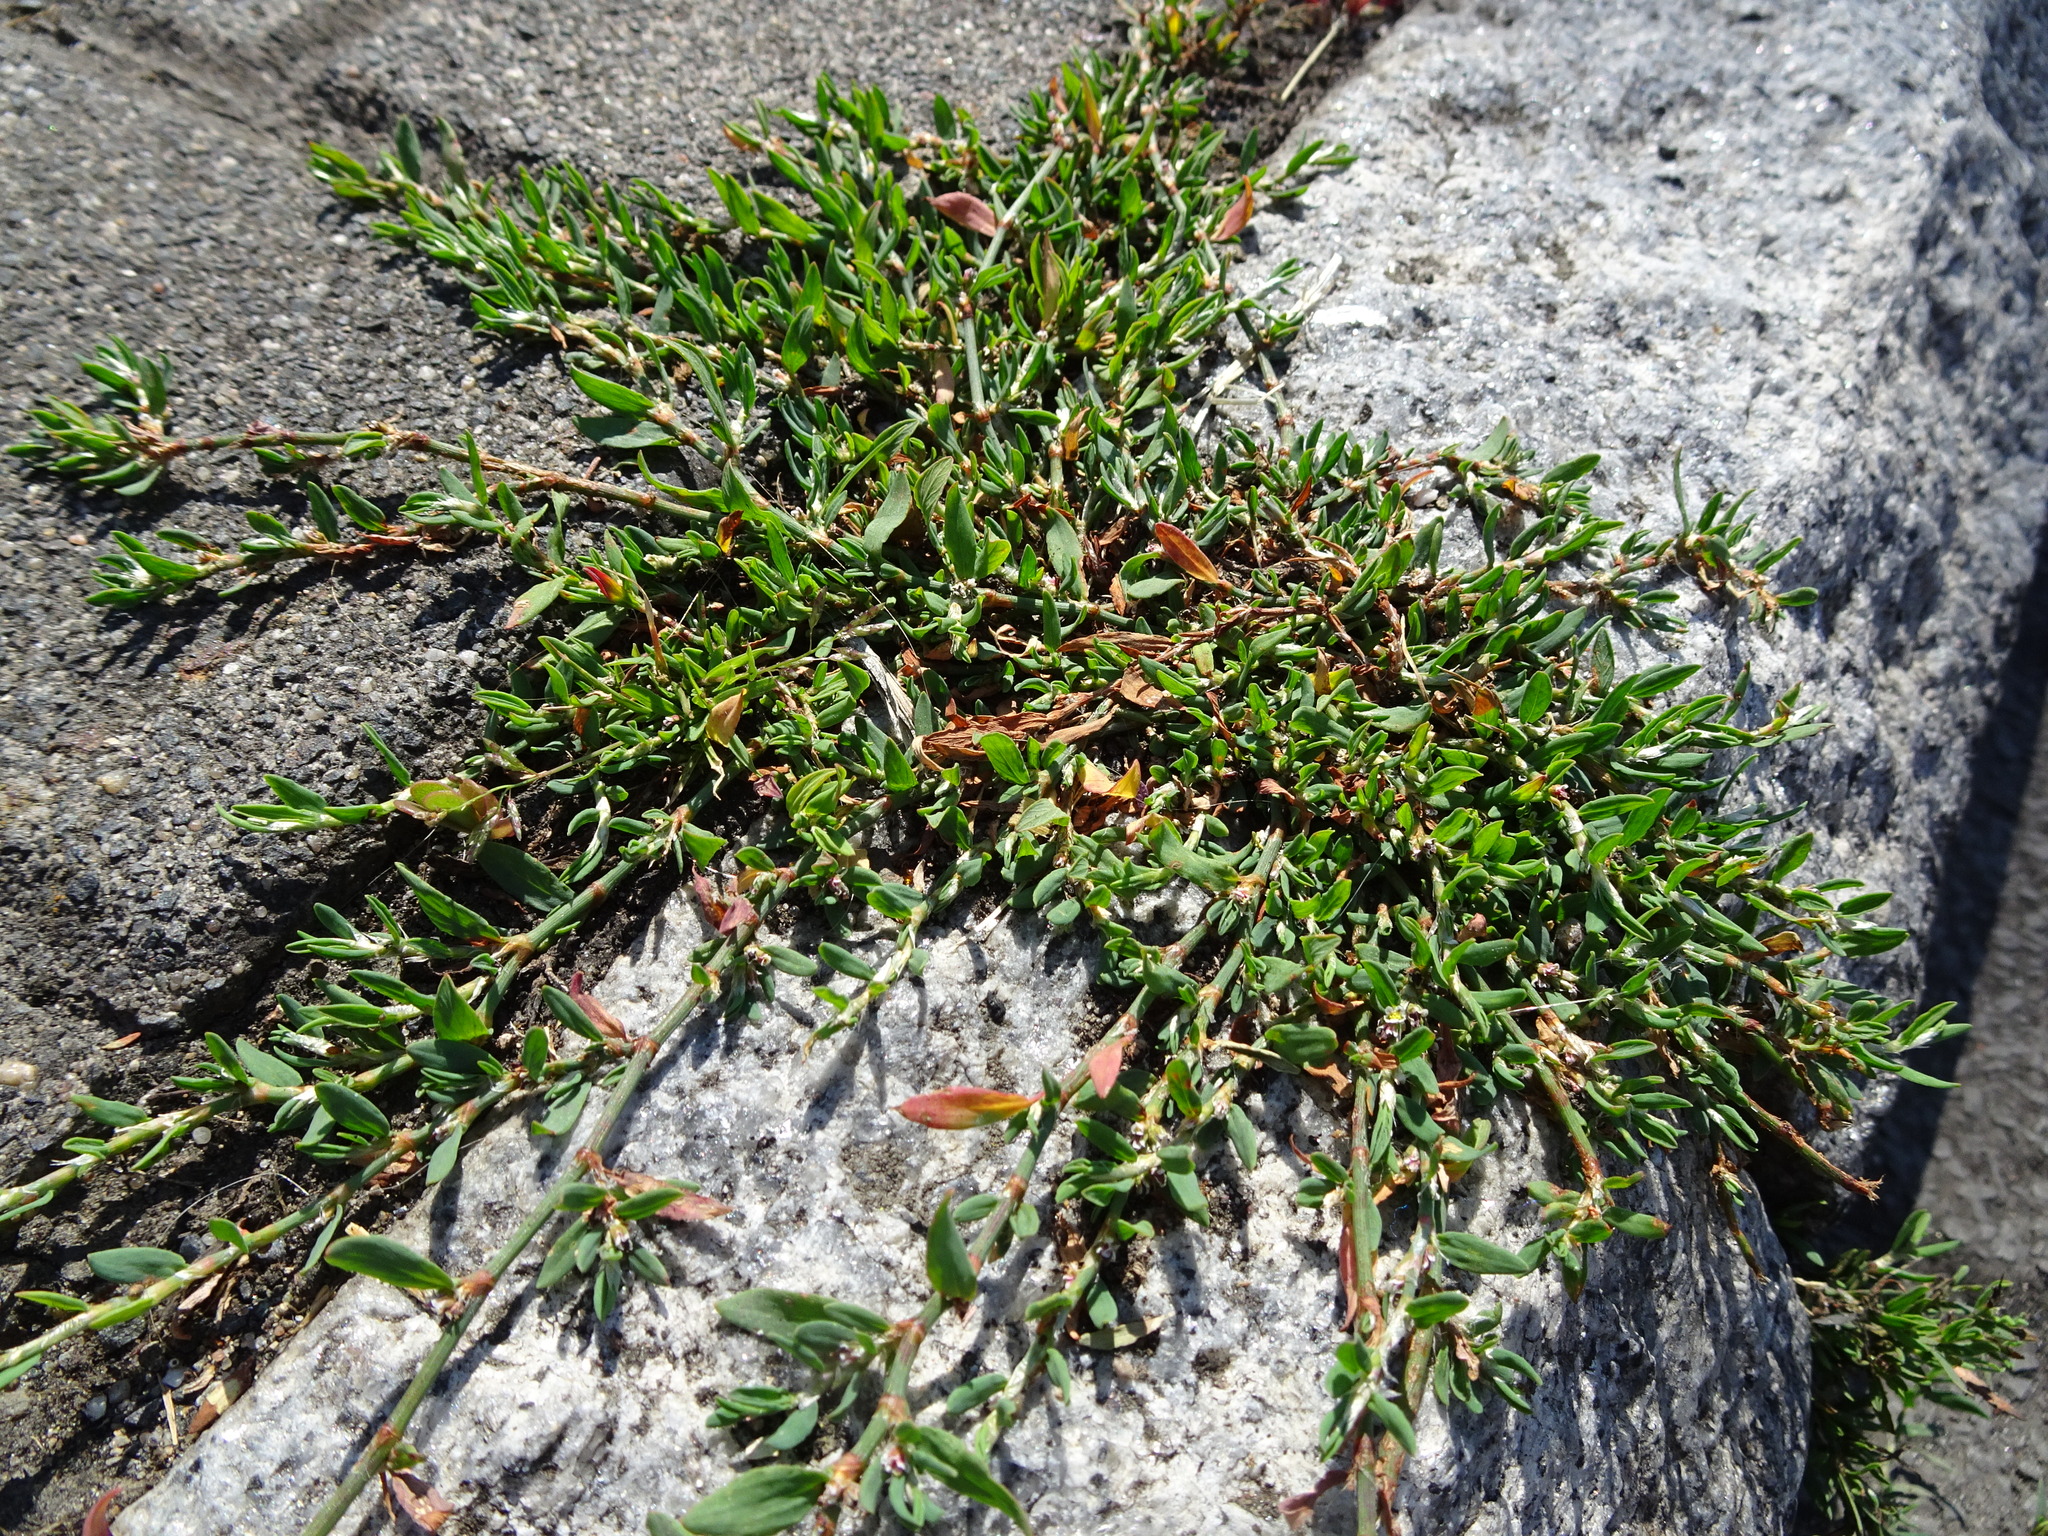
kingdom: Plantae
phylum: Tracheophyta
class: Magnoliopsida
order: Caryophyllales
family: Polygonaceae
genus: Polygonum
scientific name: Polygonum aviculare
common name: Prostrate knotweed
